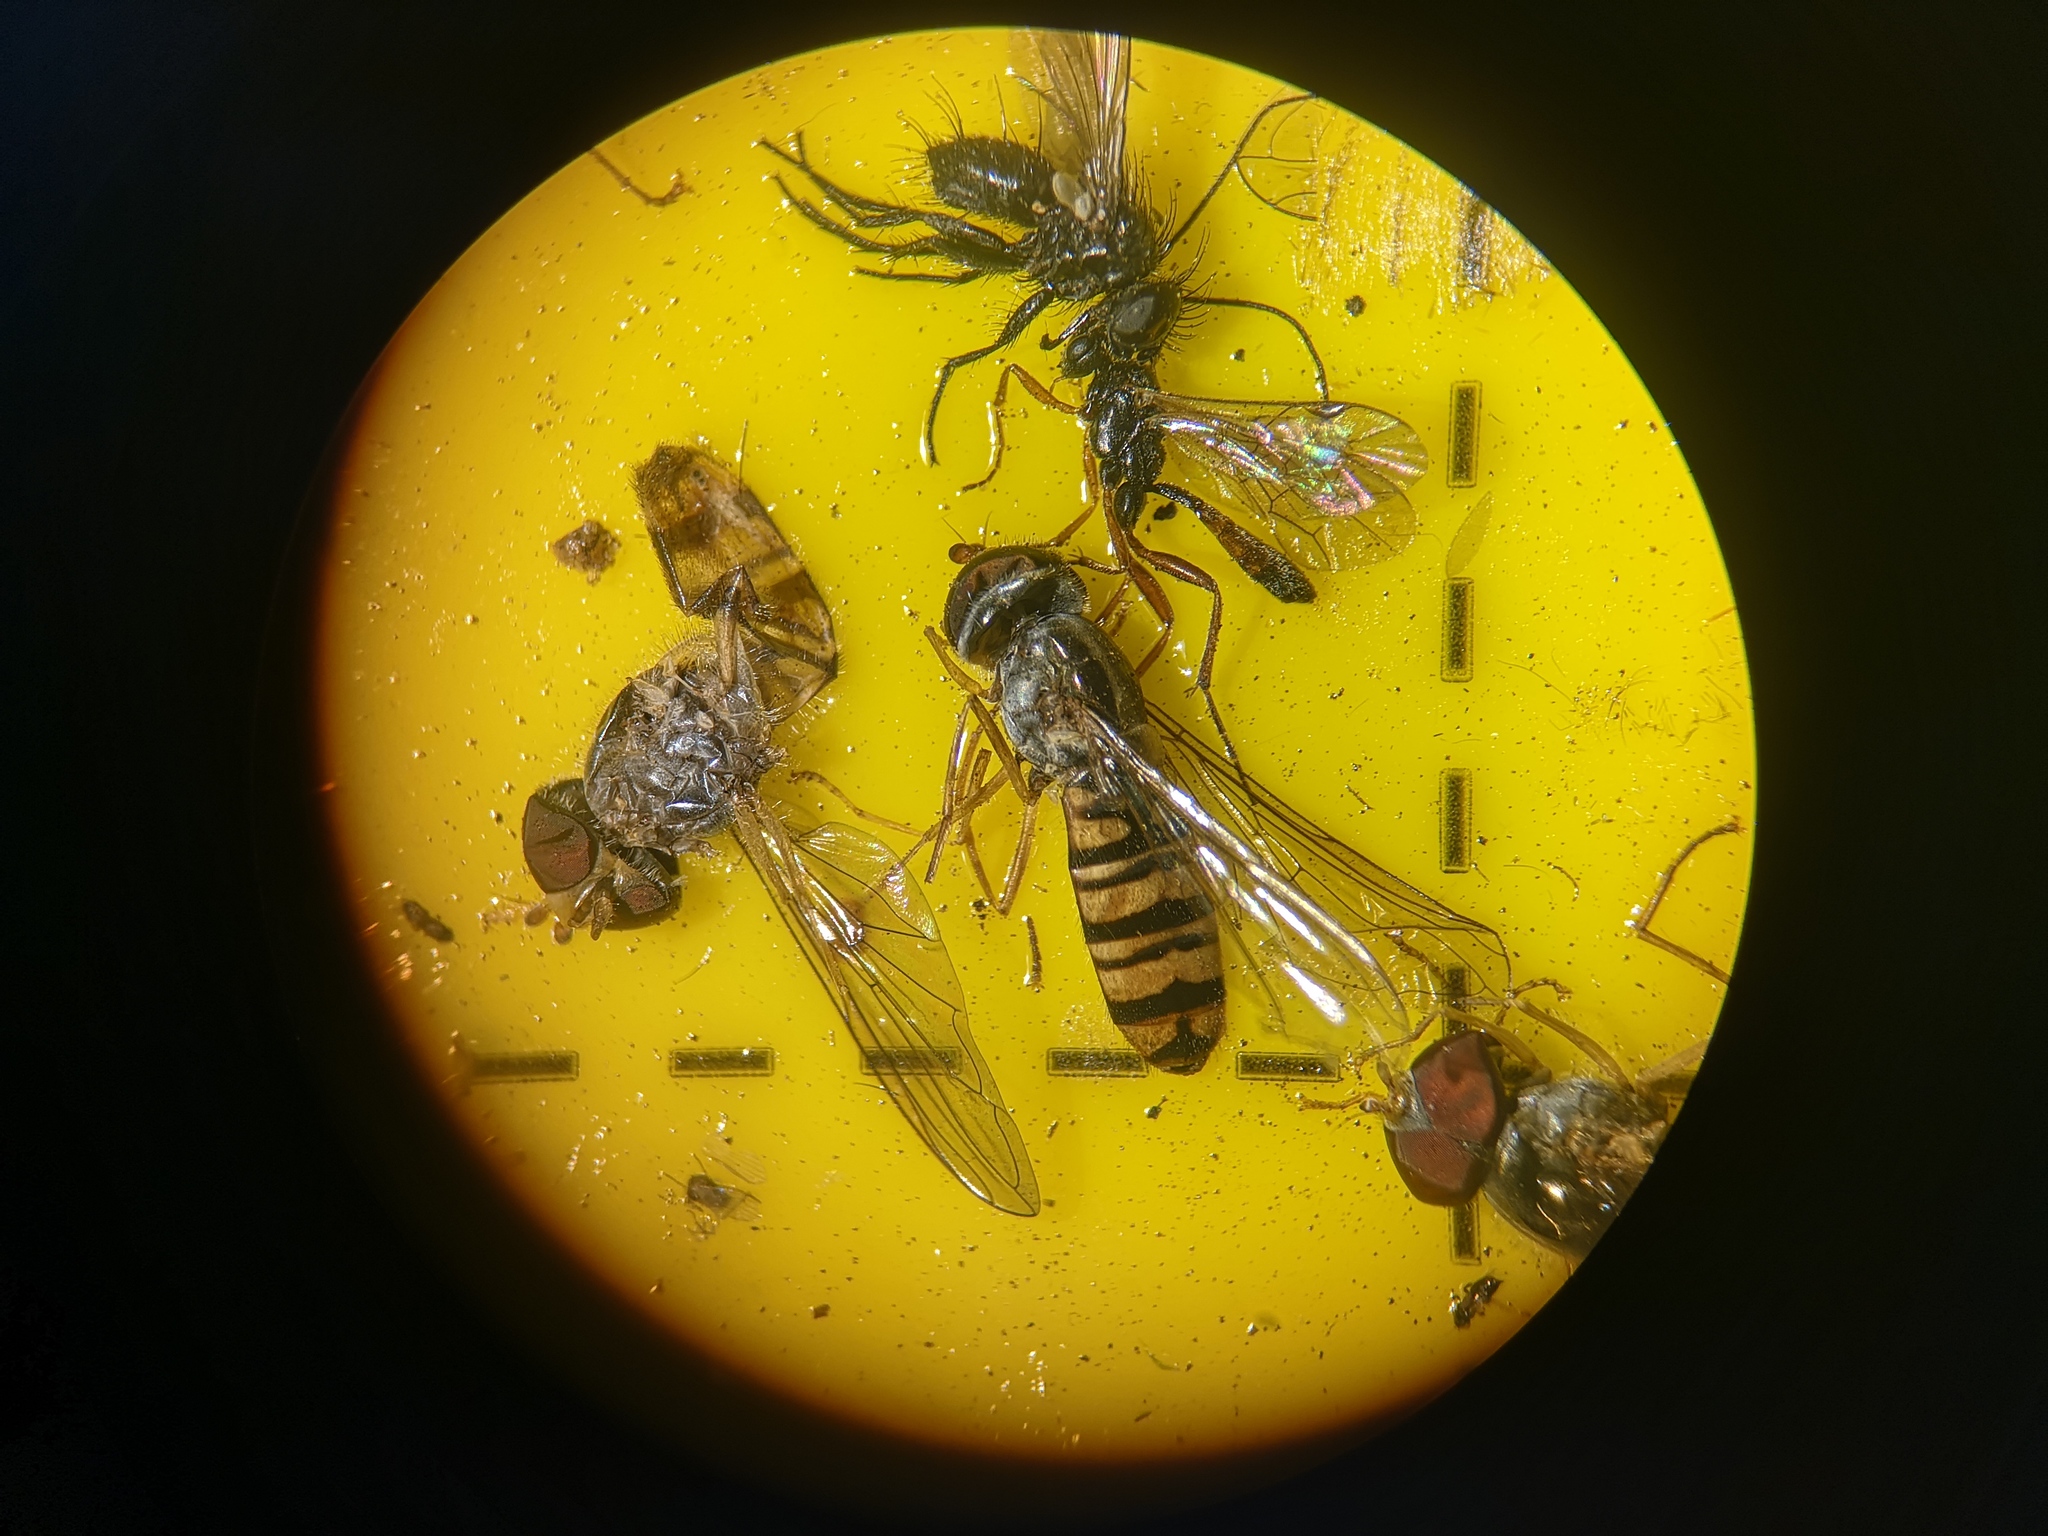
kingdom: Animalia
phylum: Arthropoda
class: Insecta
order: Diptera
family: Syrphidae
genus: Episyrphus
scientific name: Episyrphus balteatus
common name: Marmalade hoverfly
